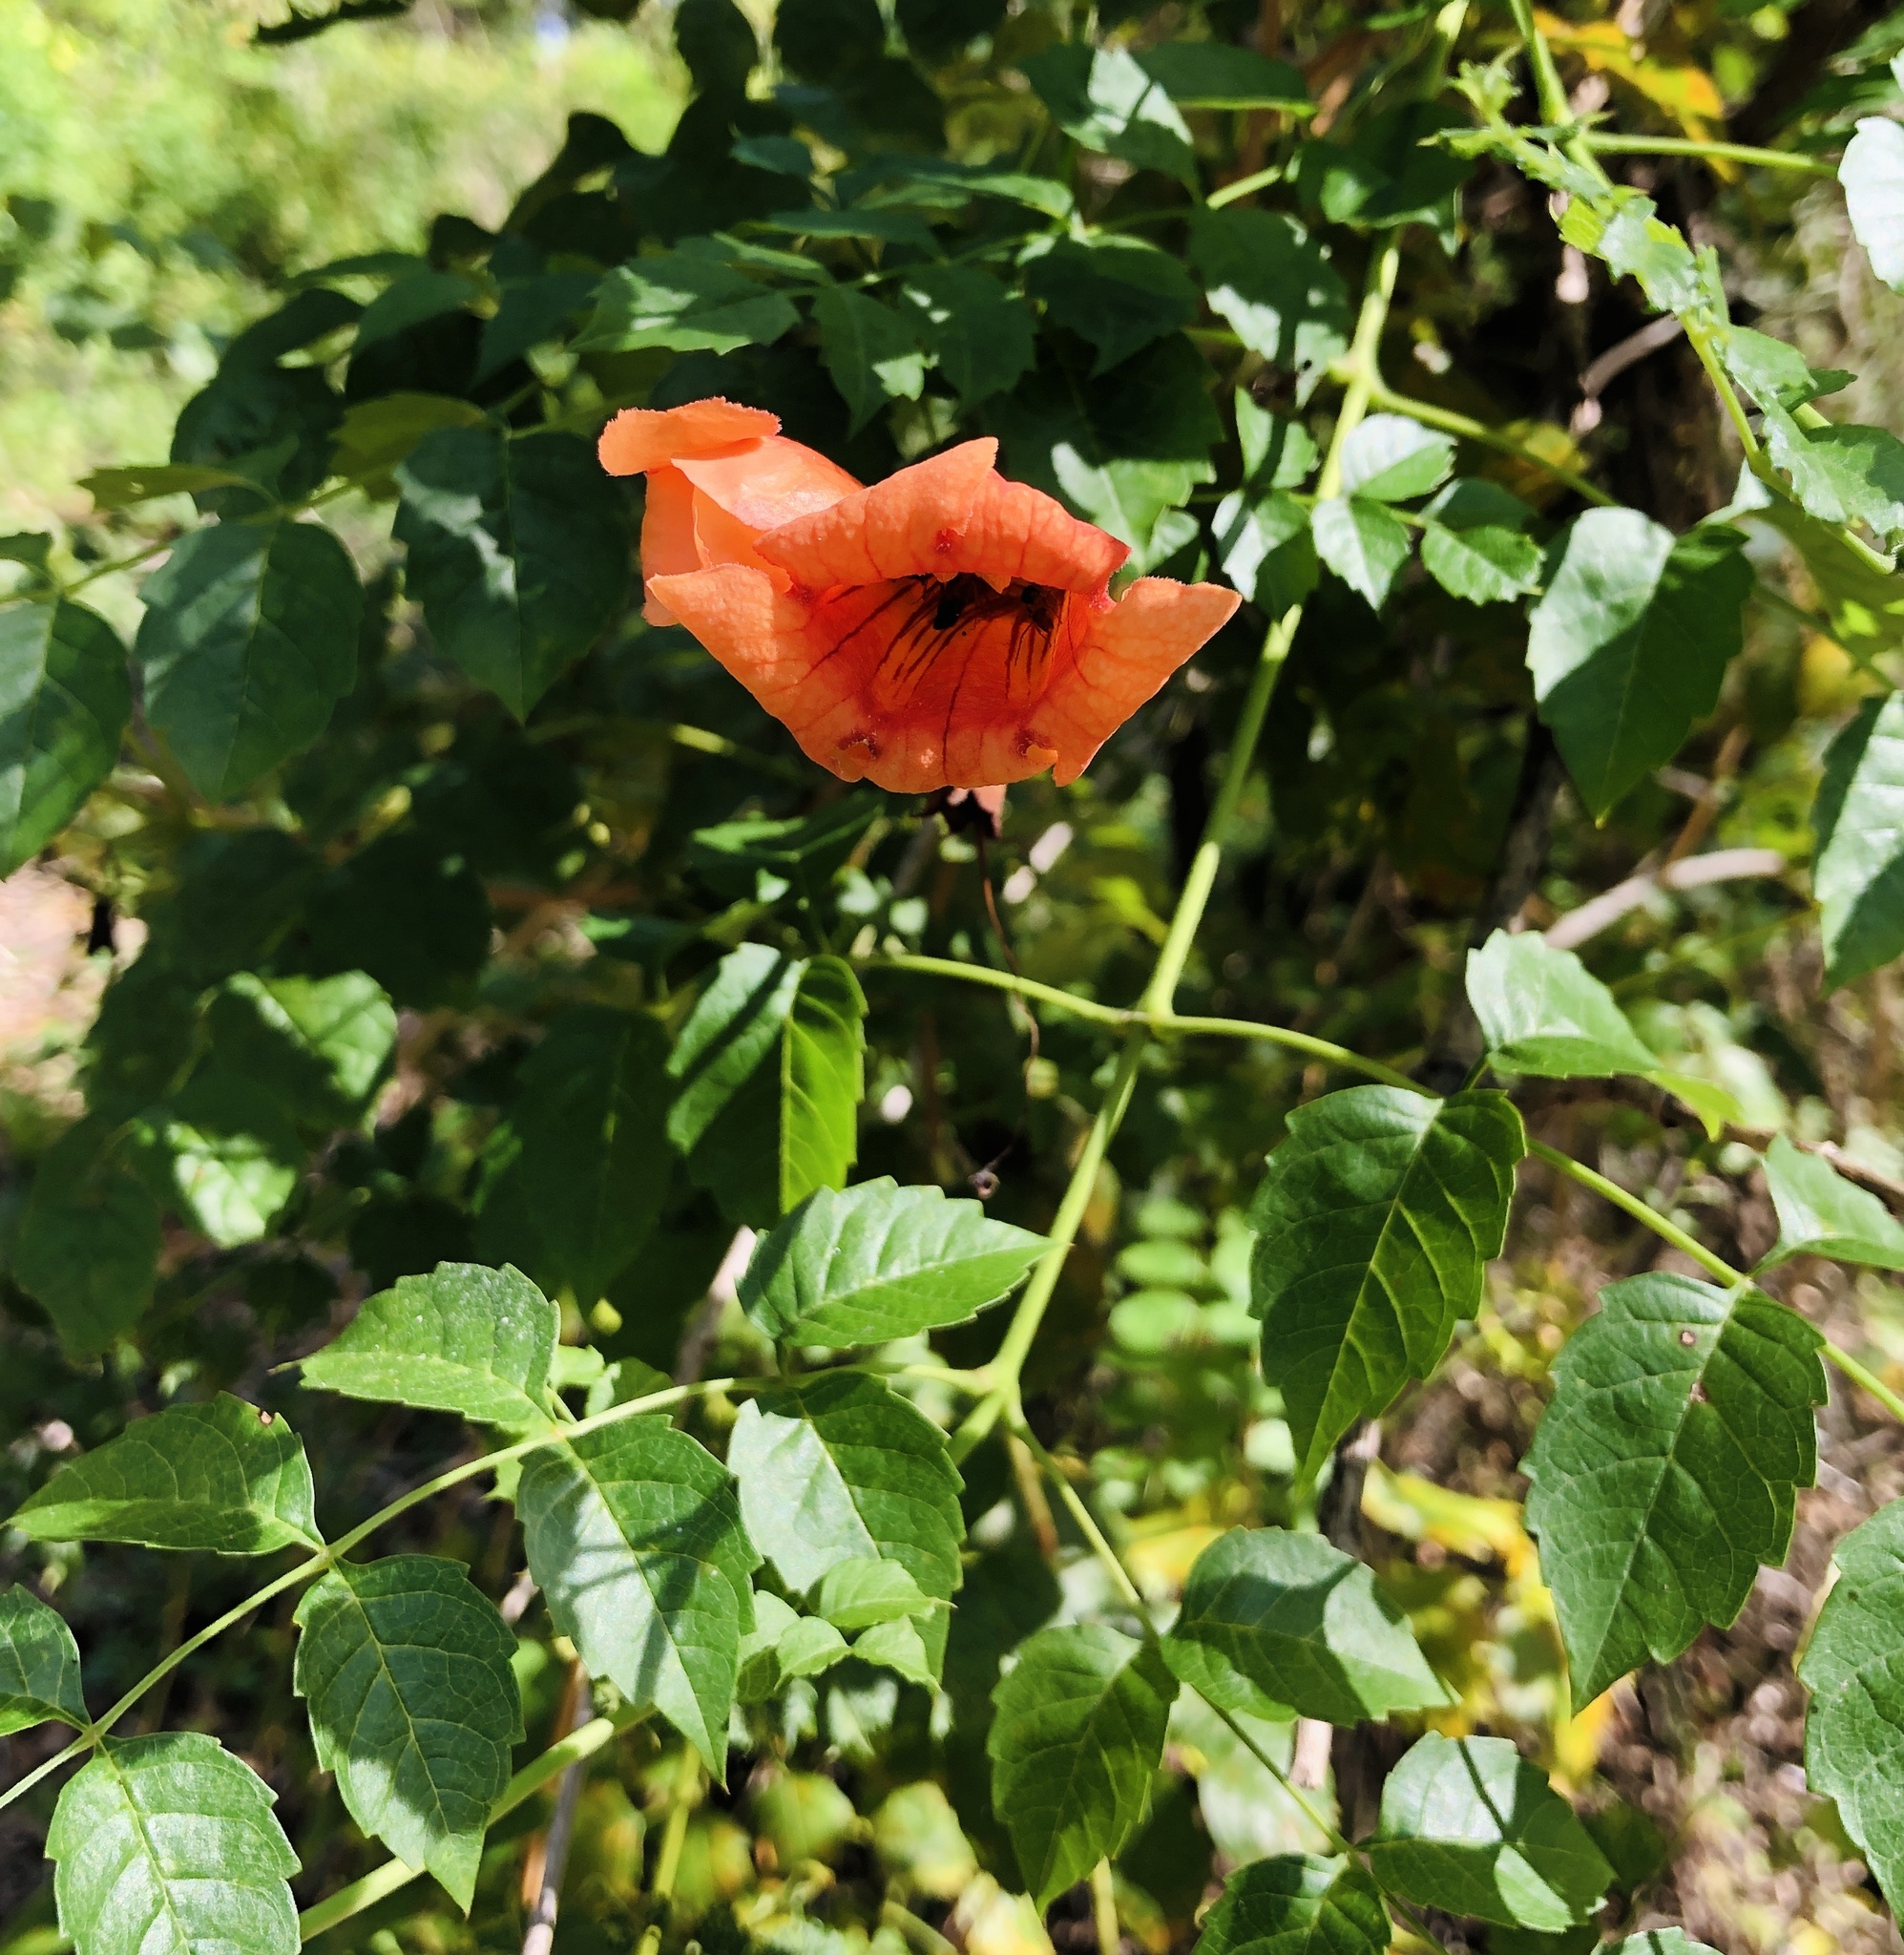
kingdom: Plantae
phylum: Tracheophyta
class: Magnoliopsida
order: Lamiales
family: Bignoniaceae
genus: Campsis
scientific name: Campsis radicans
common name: Trumpet-creeper
